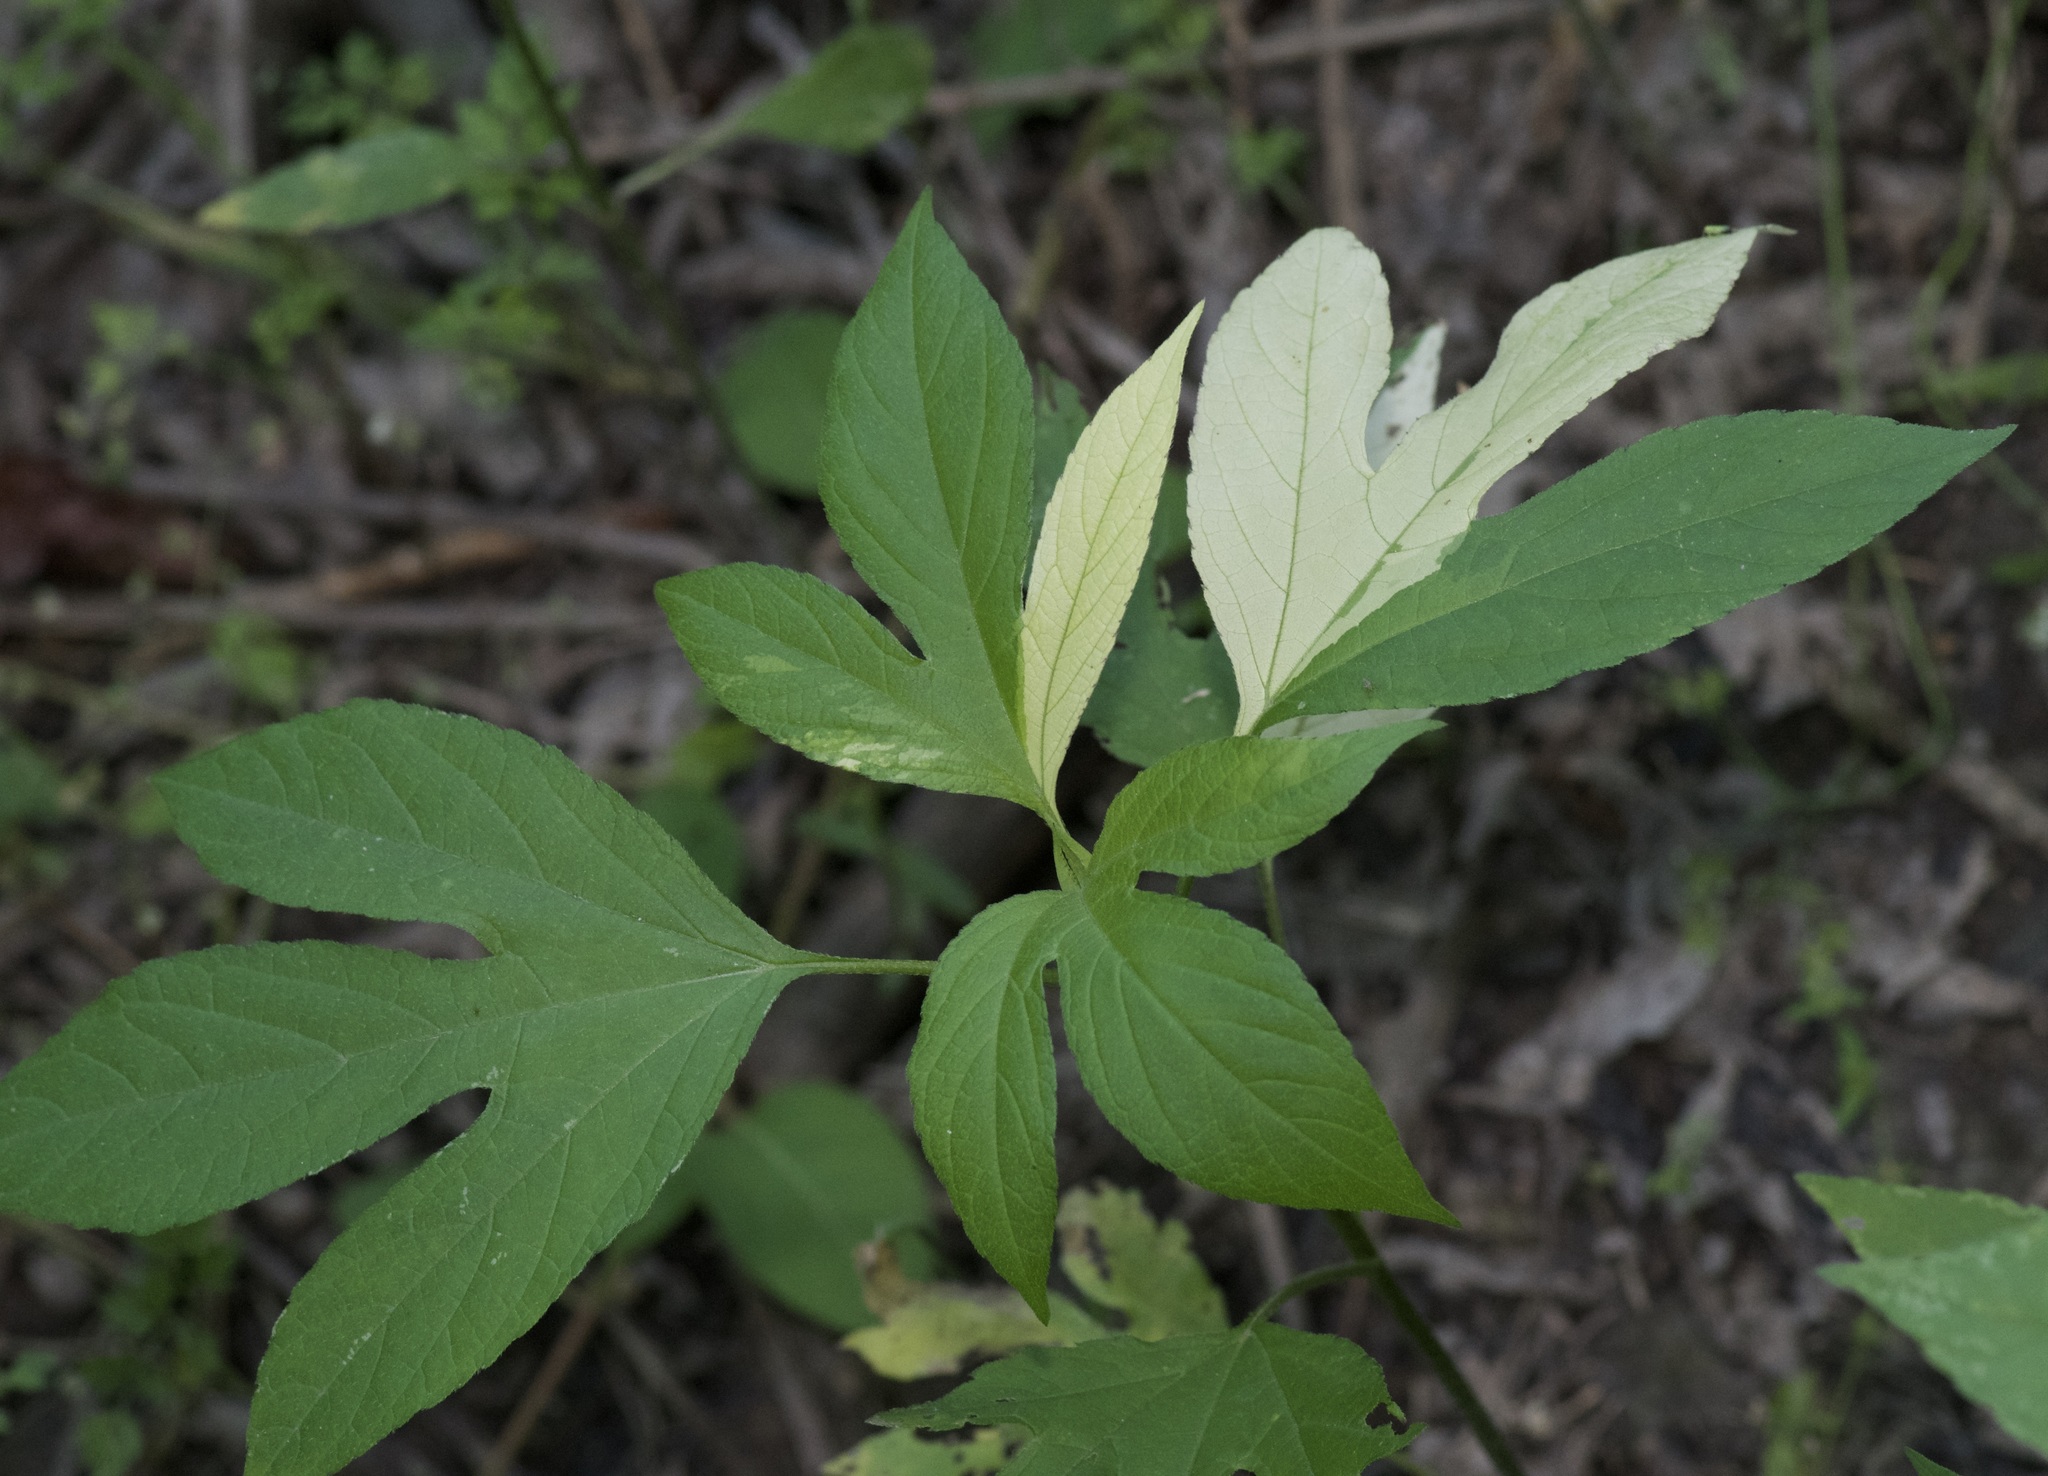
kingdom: Plantae
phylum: Tracheophyta
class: Magnoliopsida
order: Asterales
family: Asteraceae
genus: Ambrosia
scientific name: Ambrosia trifida
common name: Giant ragweed
